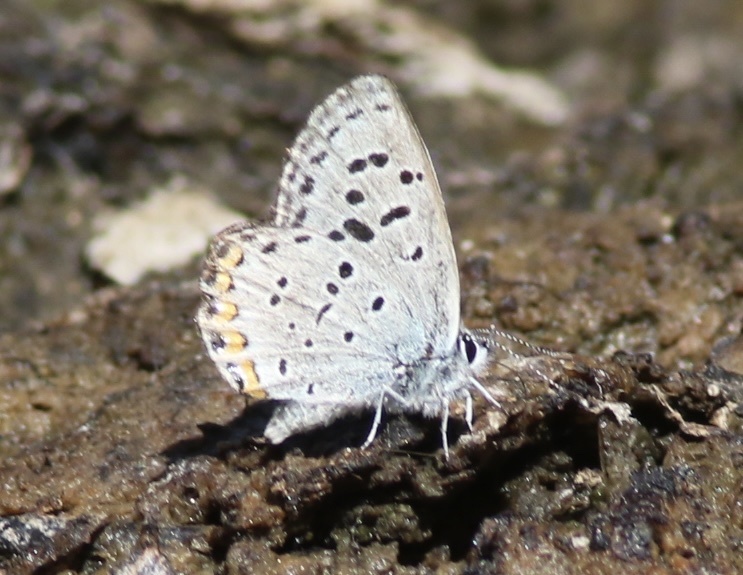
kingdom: Animalia
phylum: Arthropoda
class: Insecta
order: Lepidoptera
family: Lycaenidae
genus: Icaricia
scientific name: Icaricia lupini
